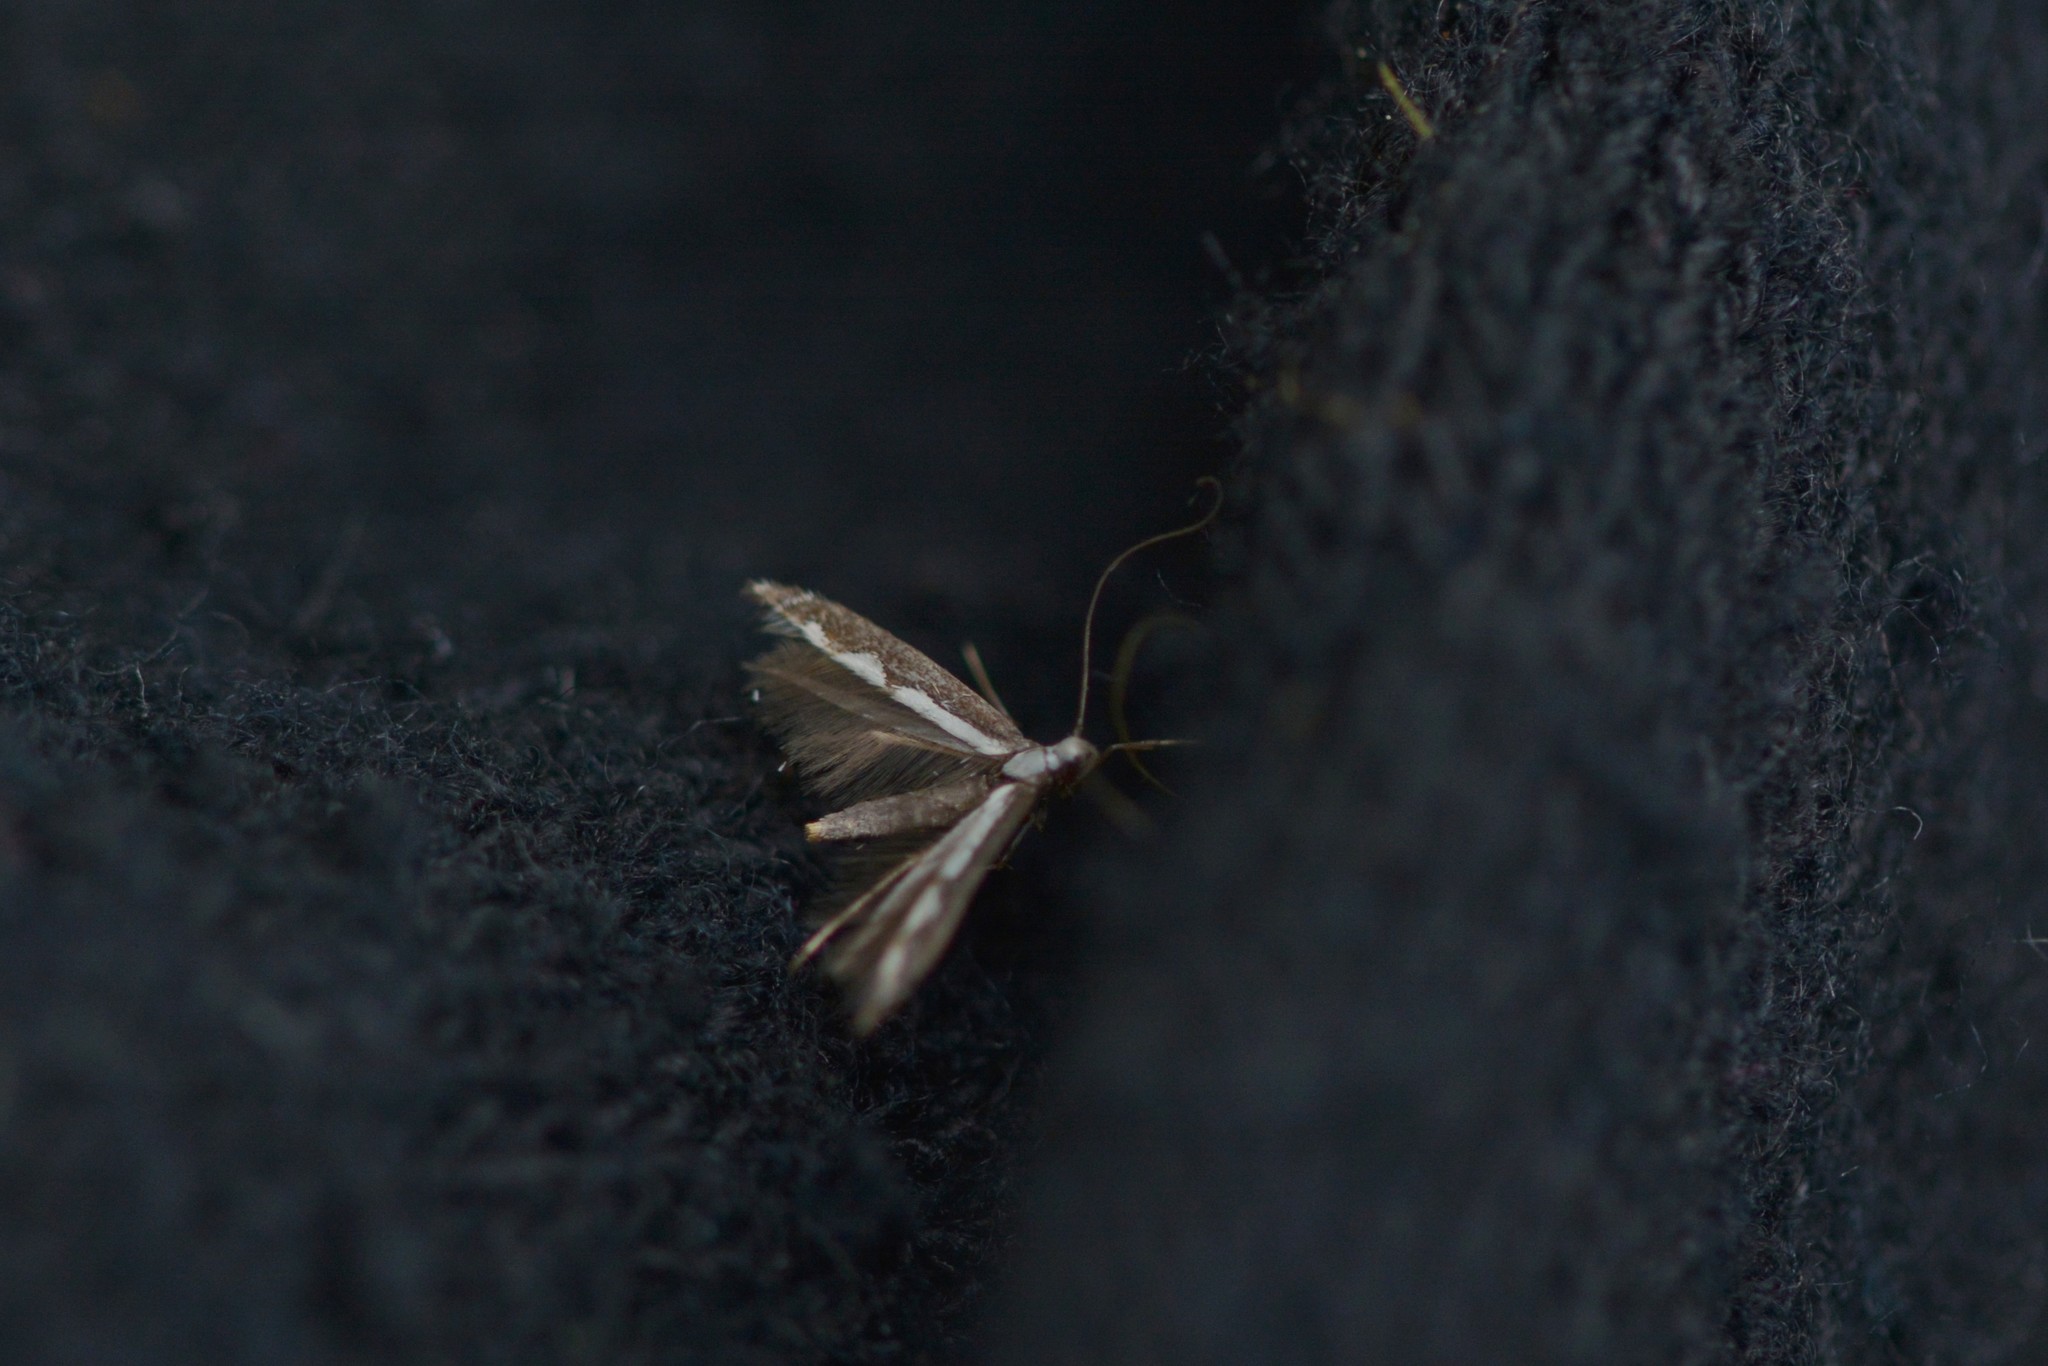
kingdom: Animalia
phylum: Arthropoda
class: Insecta
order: Lepidoptera
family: Gracillariidae
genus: Dialectica
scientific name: Dialectica scalariella
